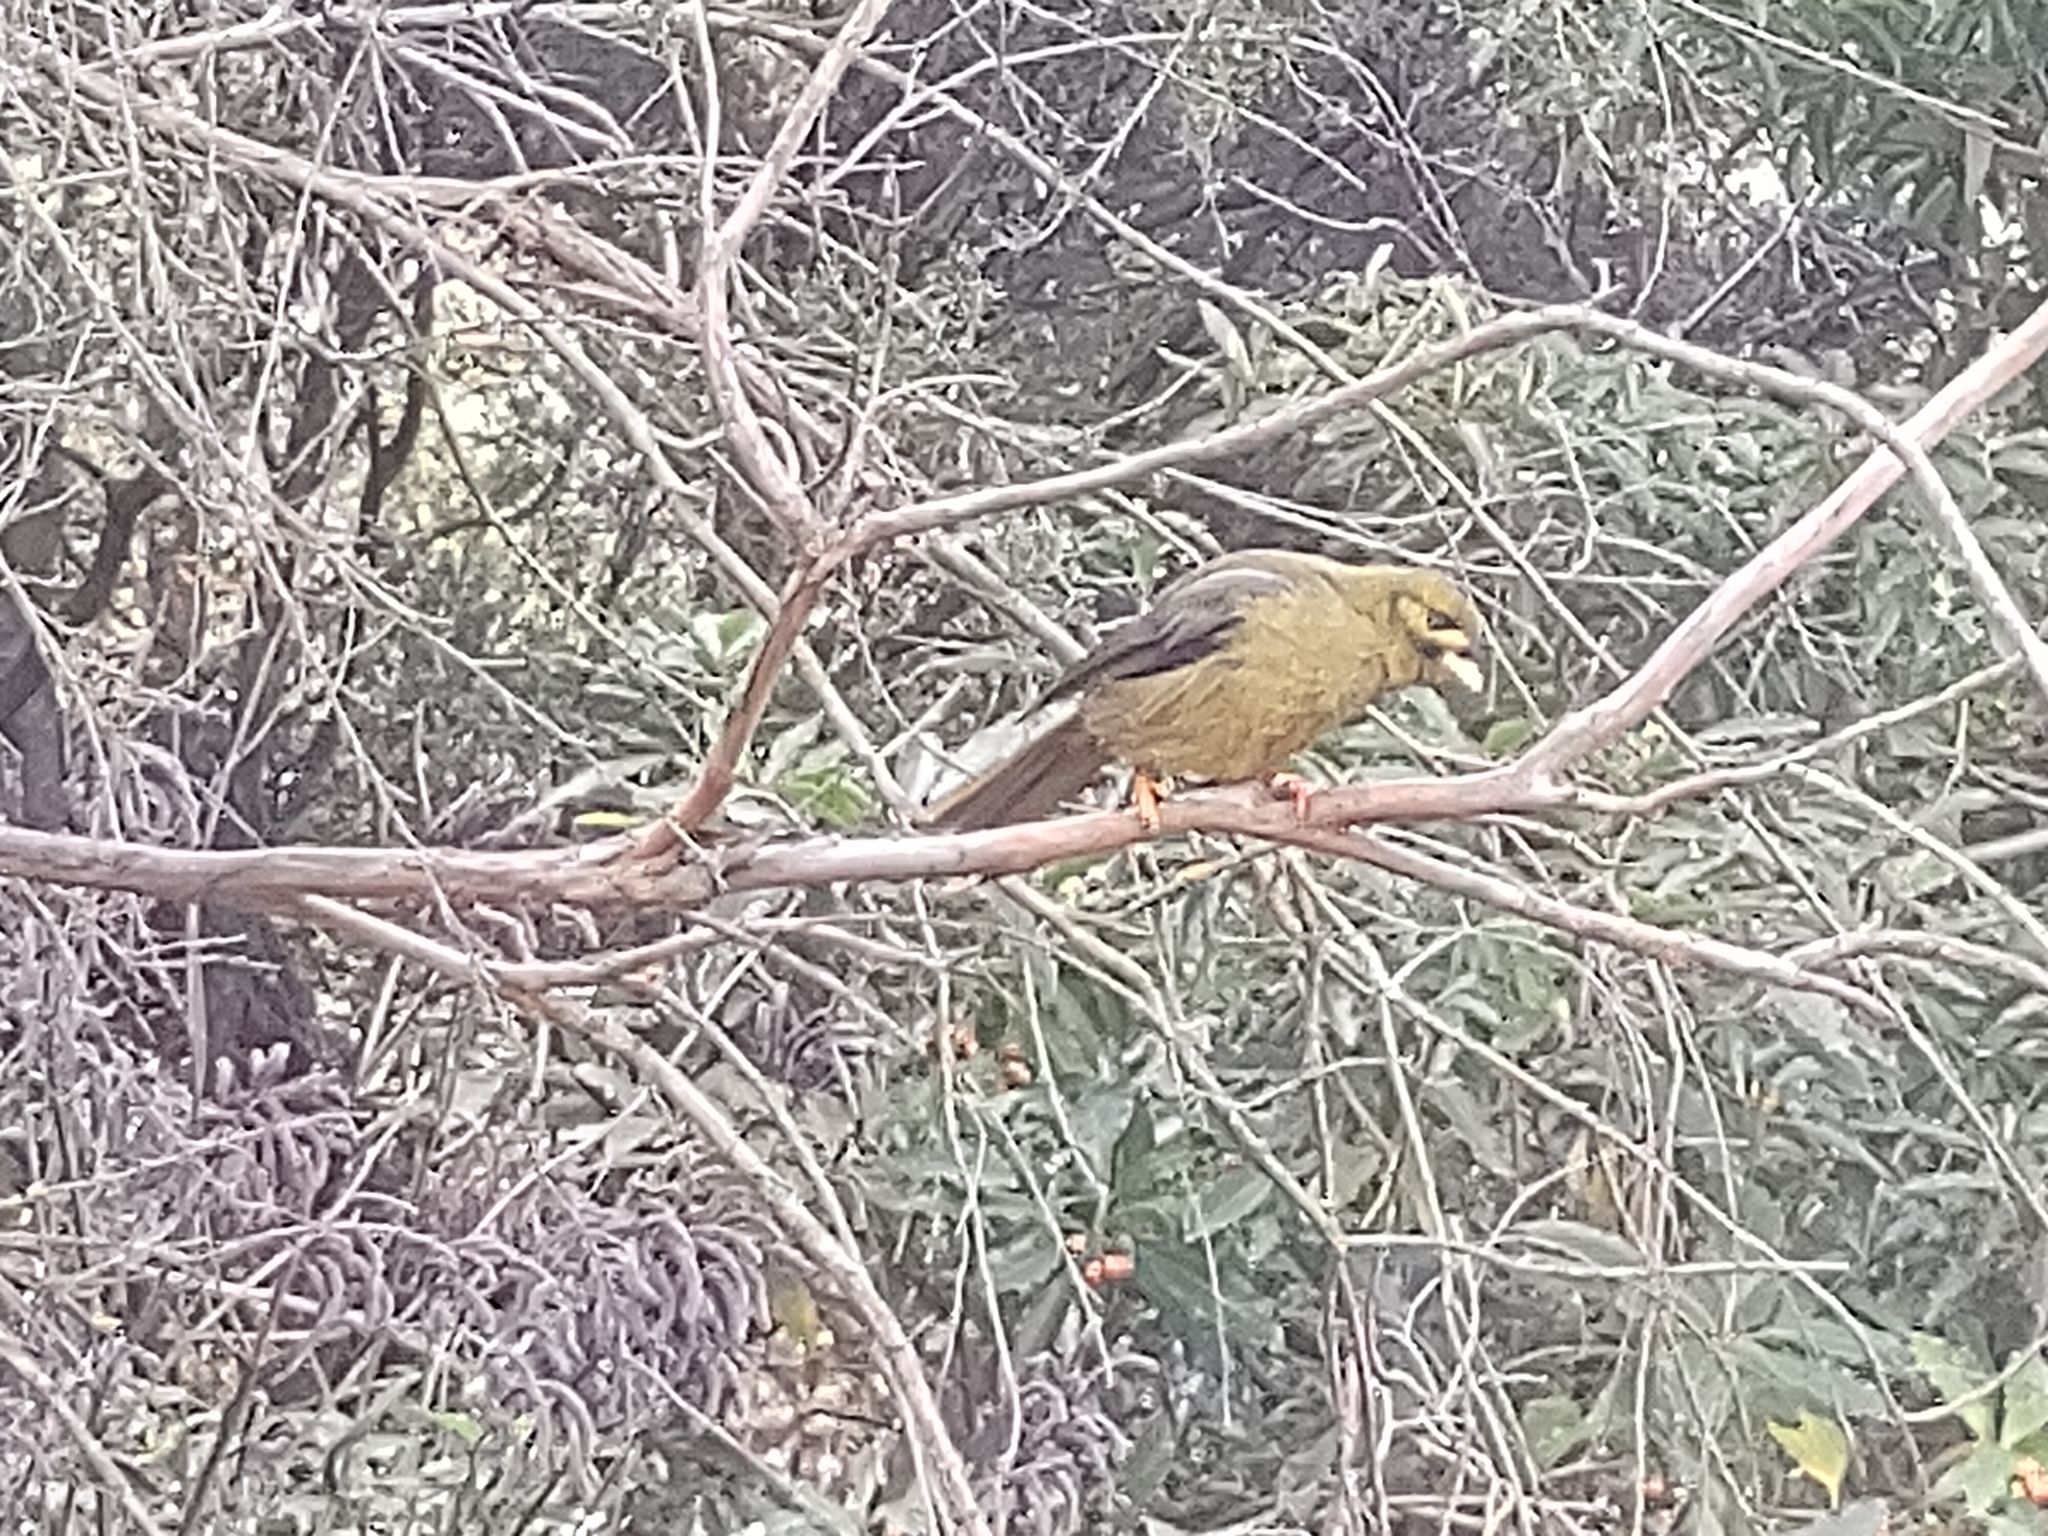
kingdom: Animalia
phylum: Chordata
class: Aves
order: Passeriformes
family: Meliphagidae
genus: Manorina
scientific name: Manorina melanophrys
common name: Bell miner
